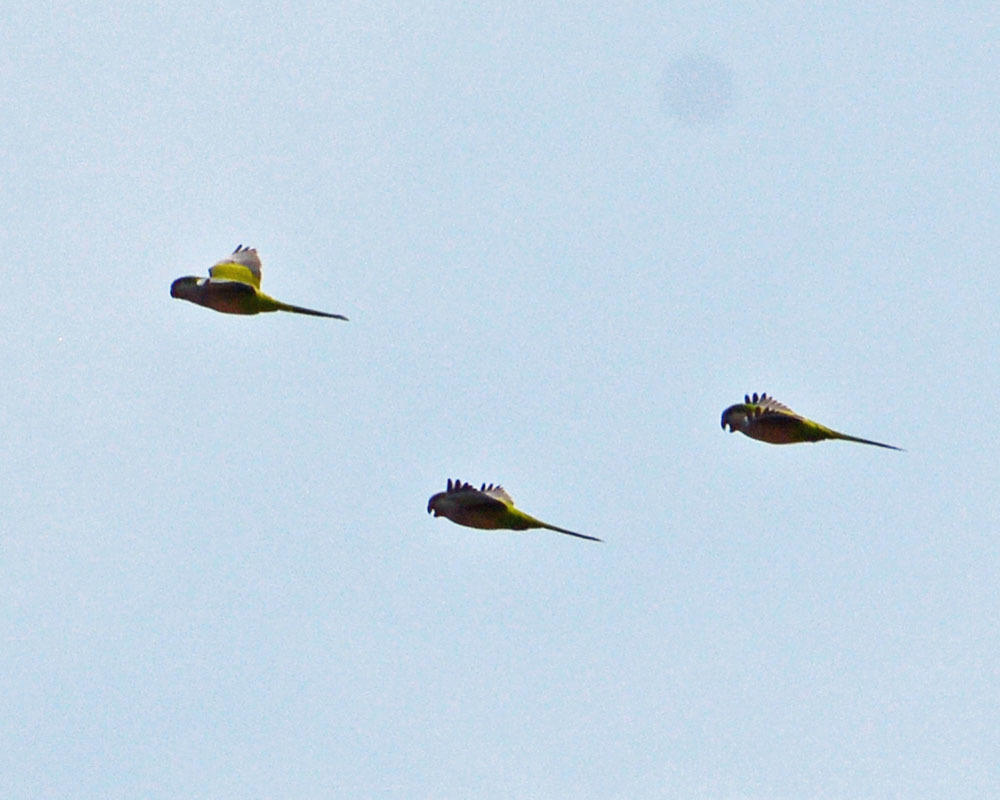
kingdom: Animalia
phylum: Chordata
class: Aves
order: Psittaciformes
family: Psittacidae
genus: Myiopsitta
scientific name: Myiopsitta monachus
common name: Monk parakeet
